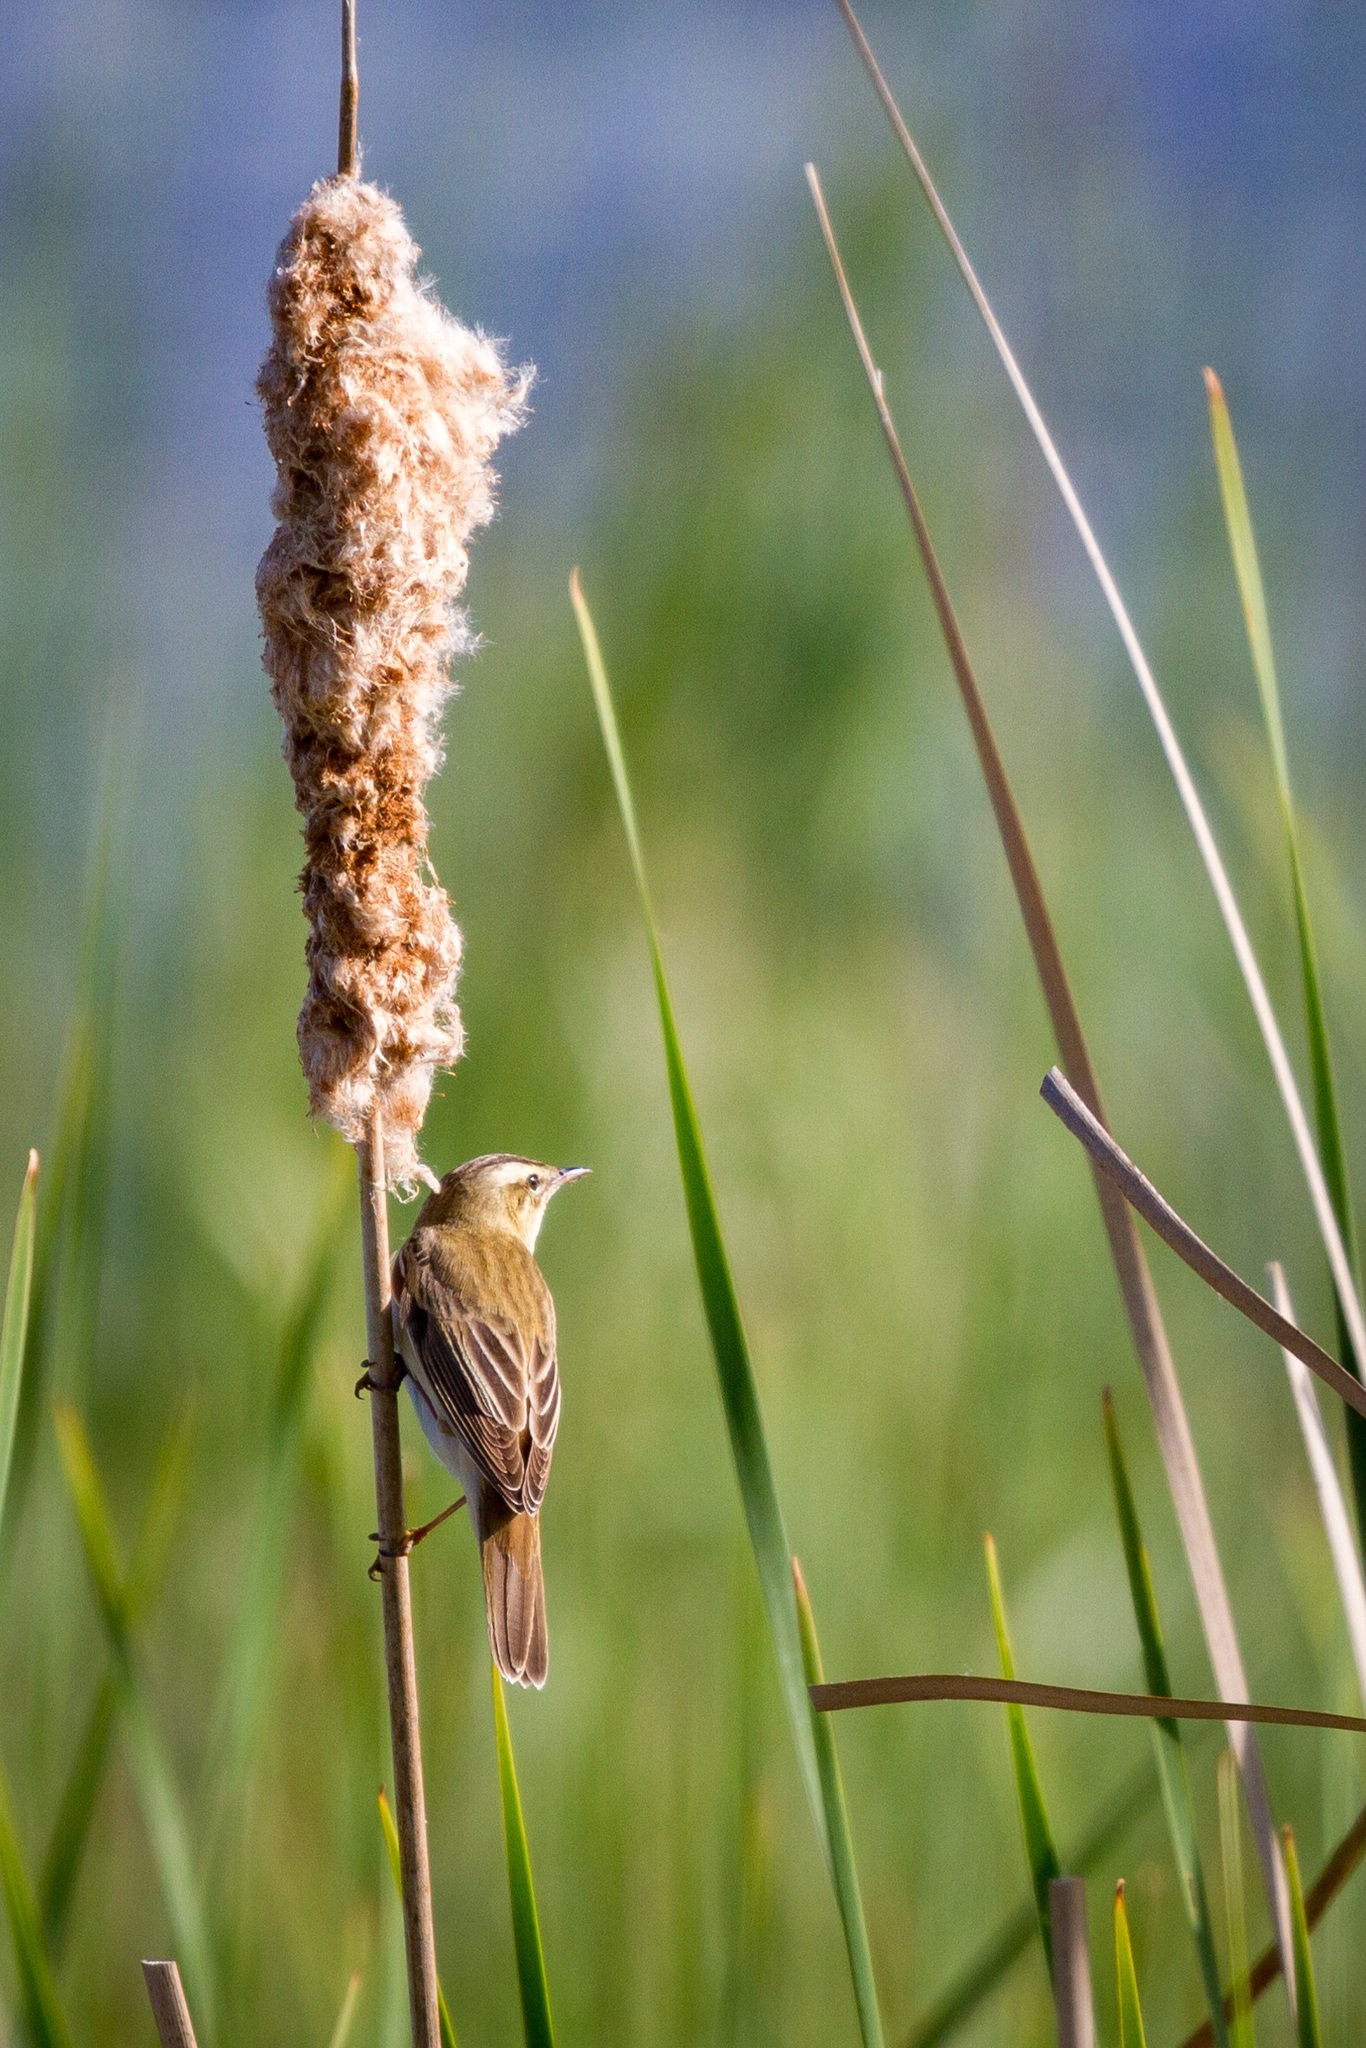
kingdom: Animalia
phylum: Chordata
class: Aves
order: Passeriformes
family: Acrocephalidae
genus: Acrocephalus
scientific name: Acrocephalus schoenobaenus
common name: Sedge warbler
